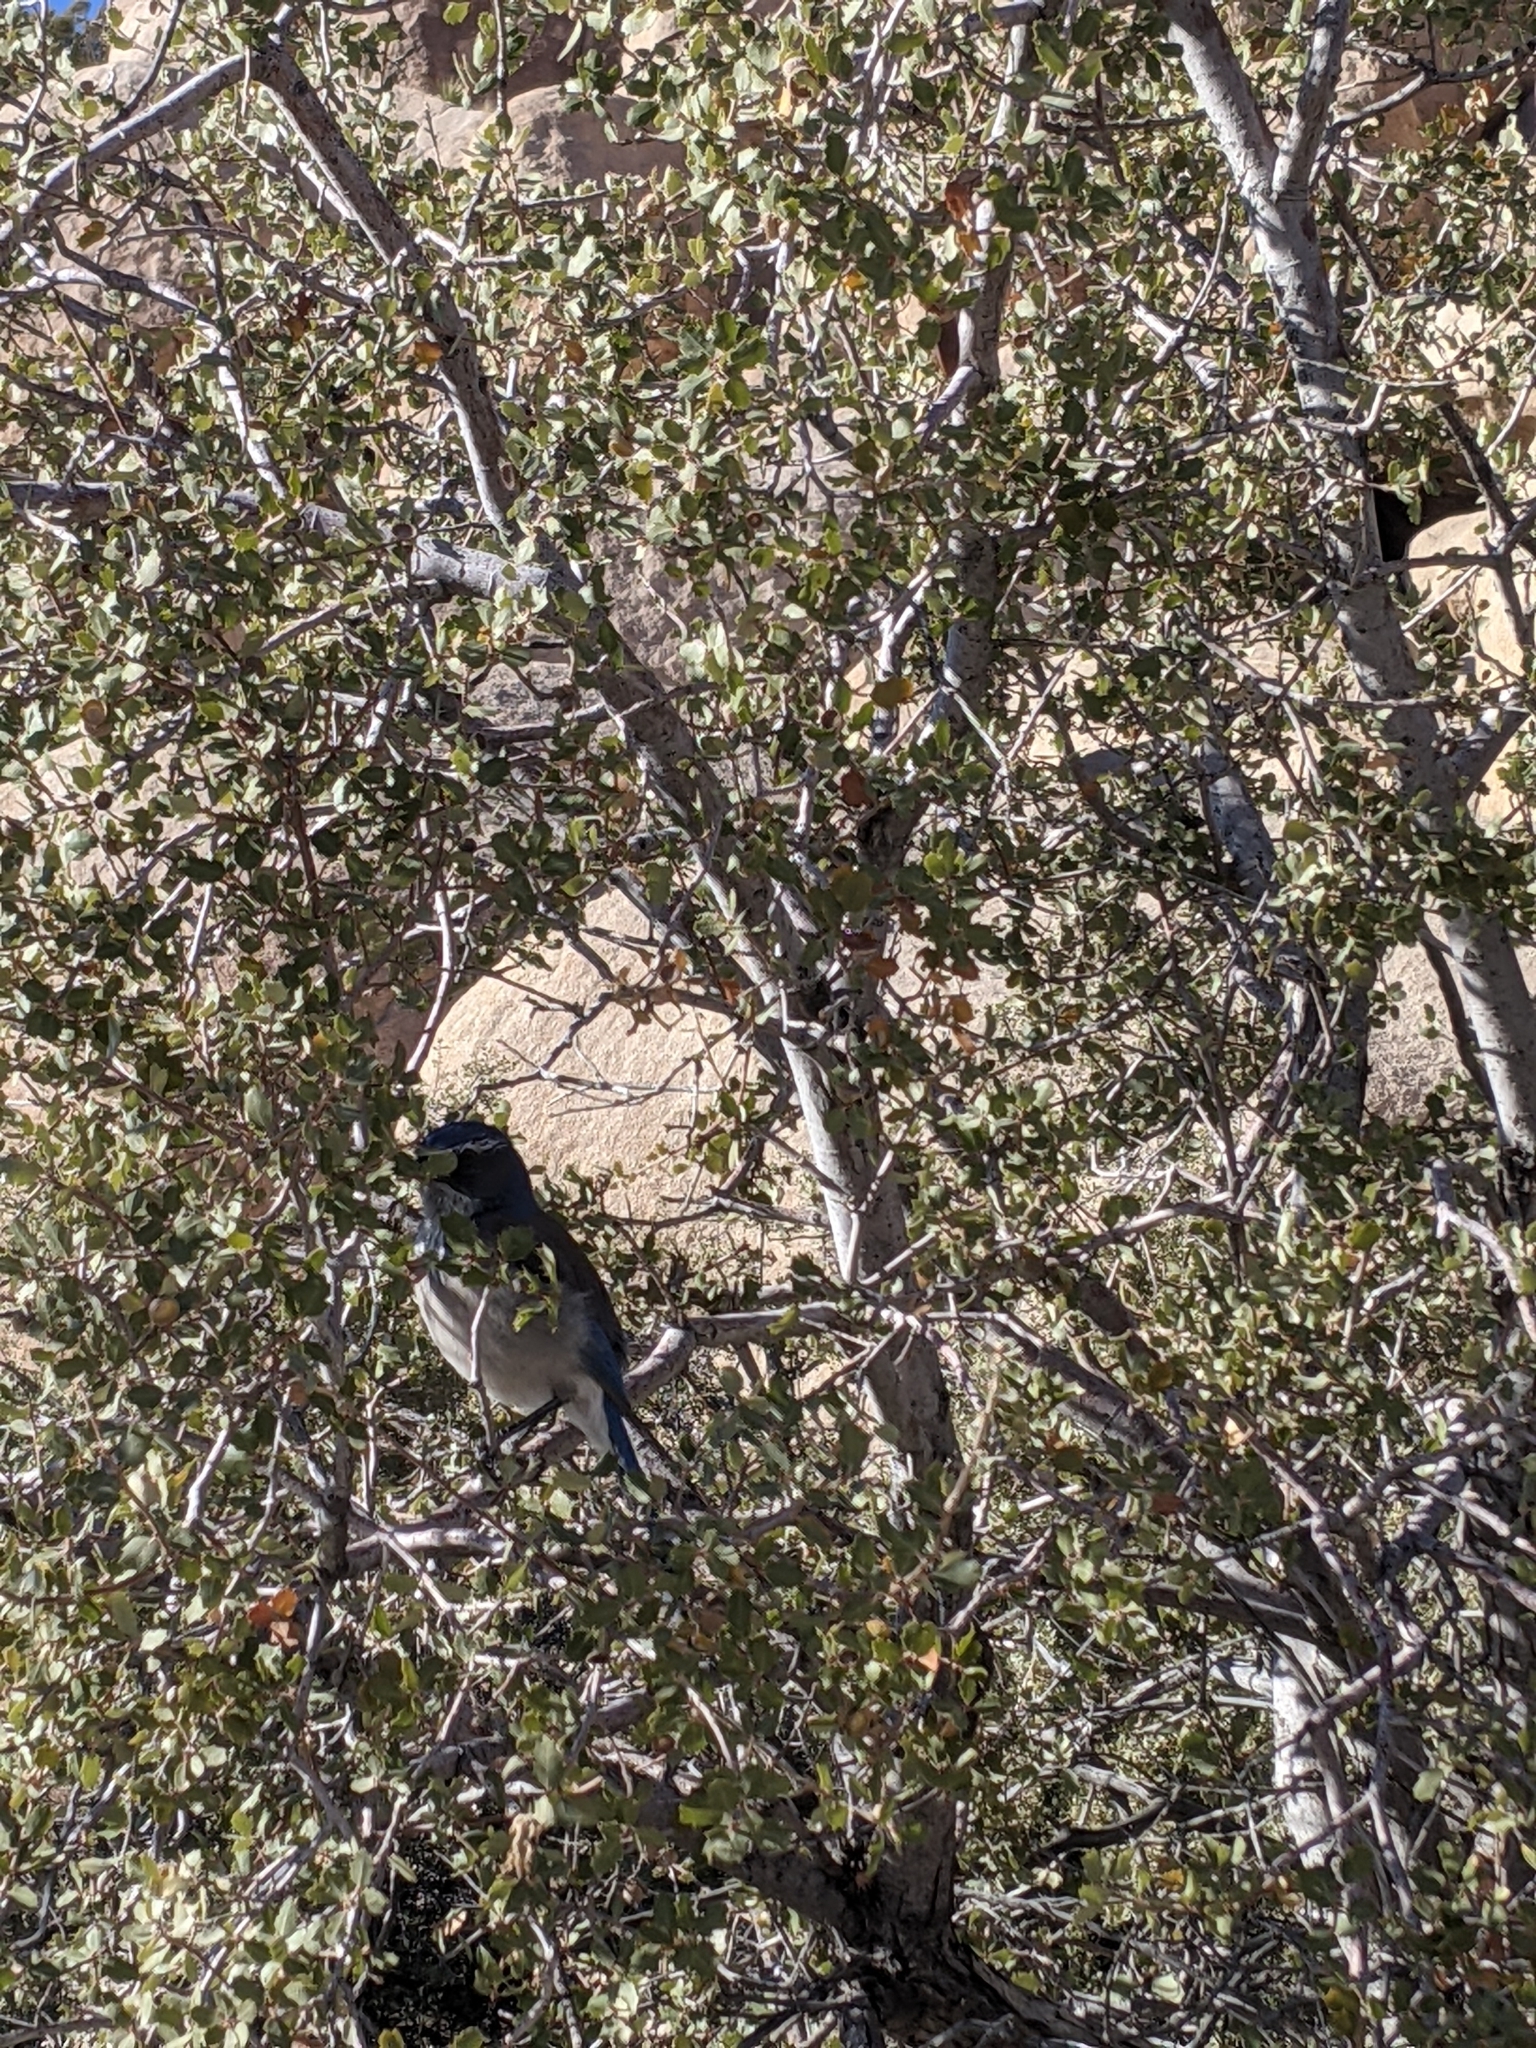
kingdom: Animalia
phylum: Chordata
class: Aves
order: Passeriformes
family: Corvidae
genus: Aphelocoma
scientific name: Aphelocoma californica
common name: California scrub-jay
